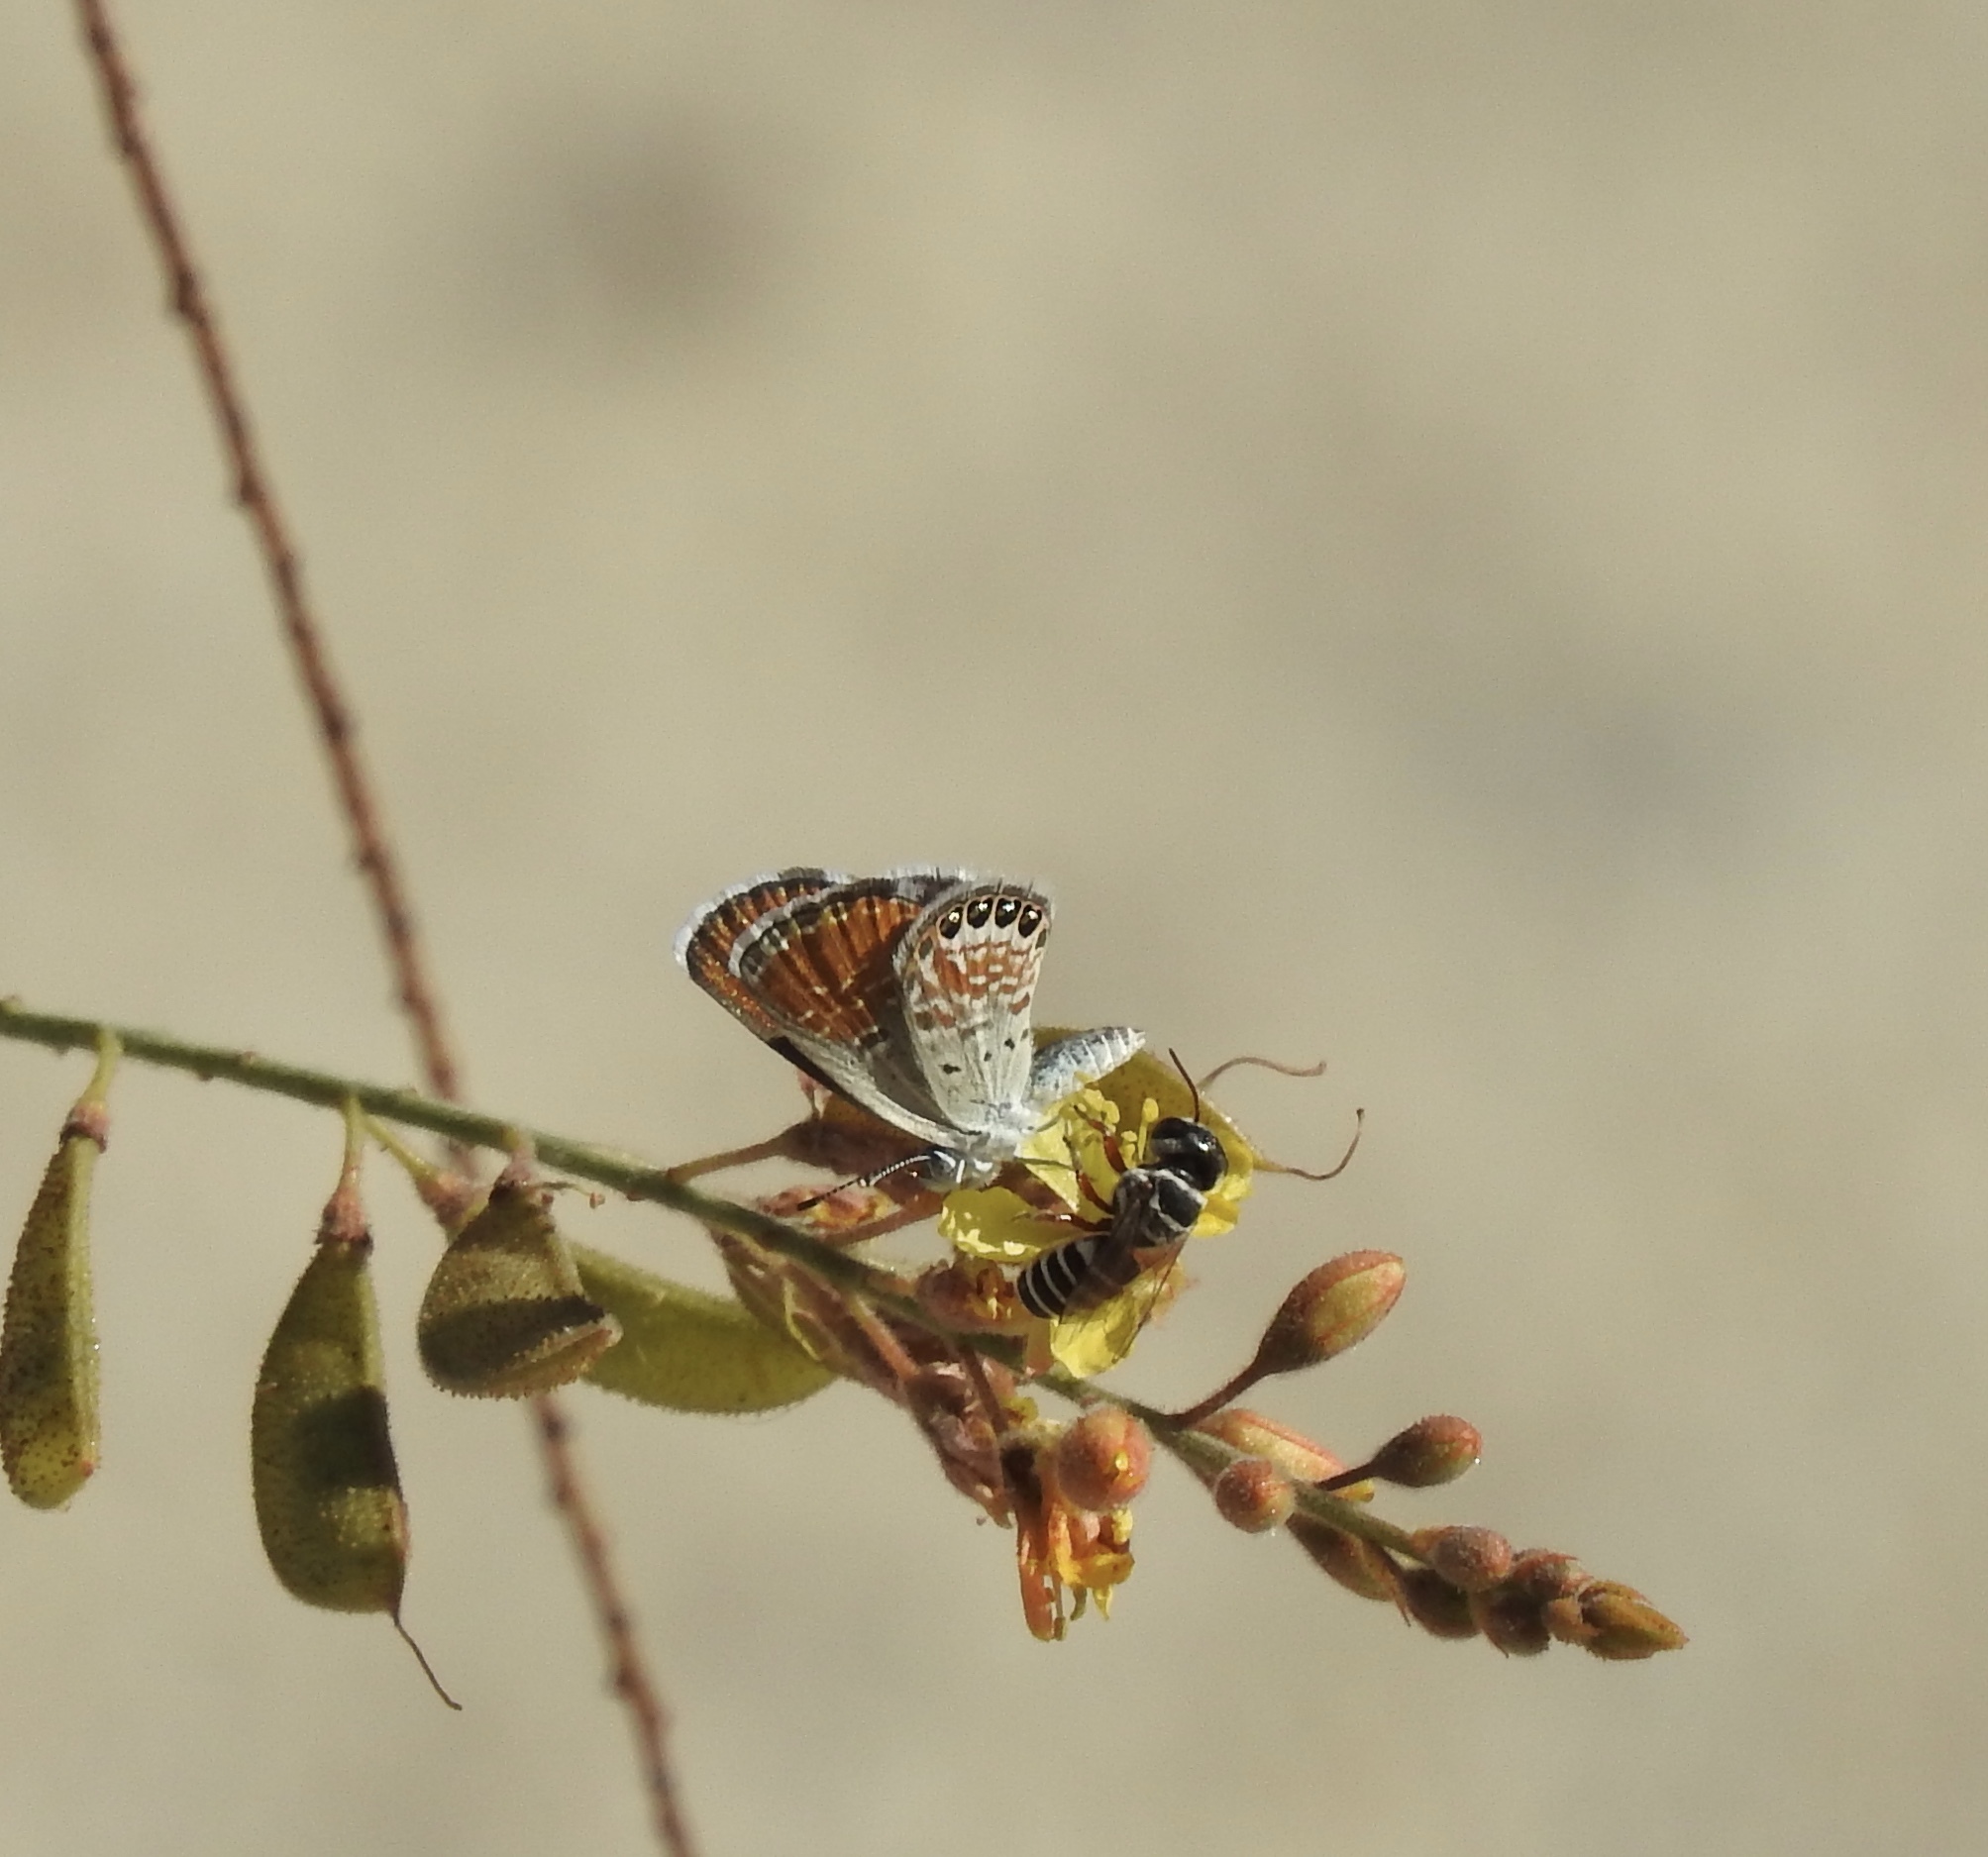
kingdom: Animalia
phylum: Arthropoda
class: Insecta
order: Lepidoptera
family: Lycaenidae
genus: Brephidium
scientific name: Brephidium exilis
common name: Pygmy blue
